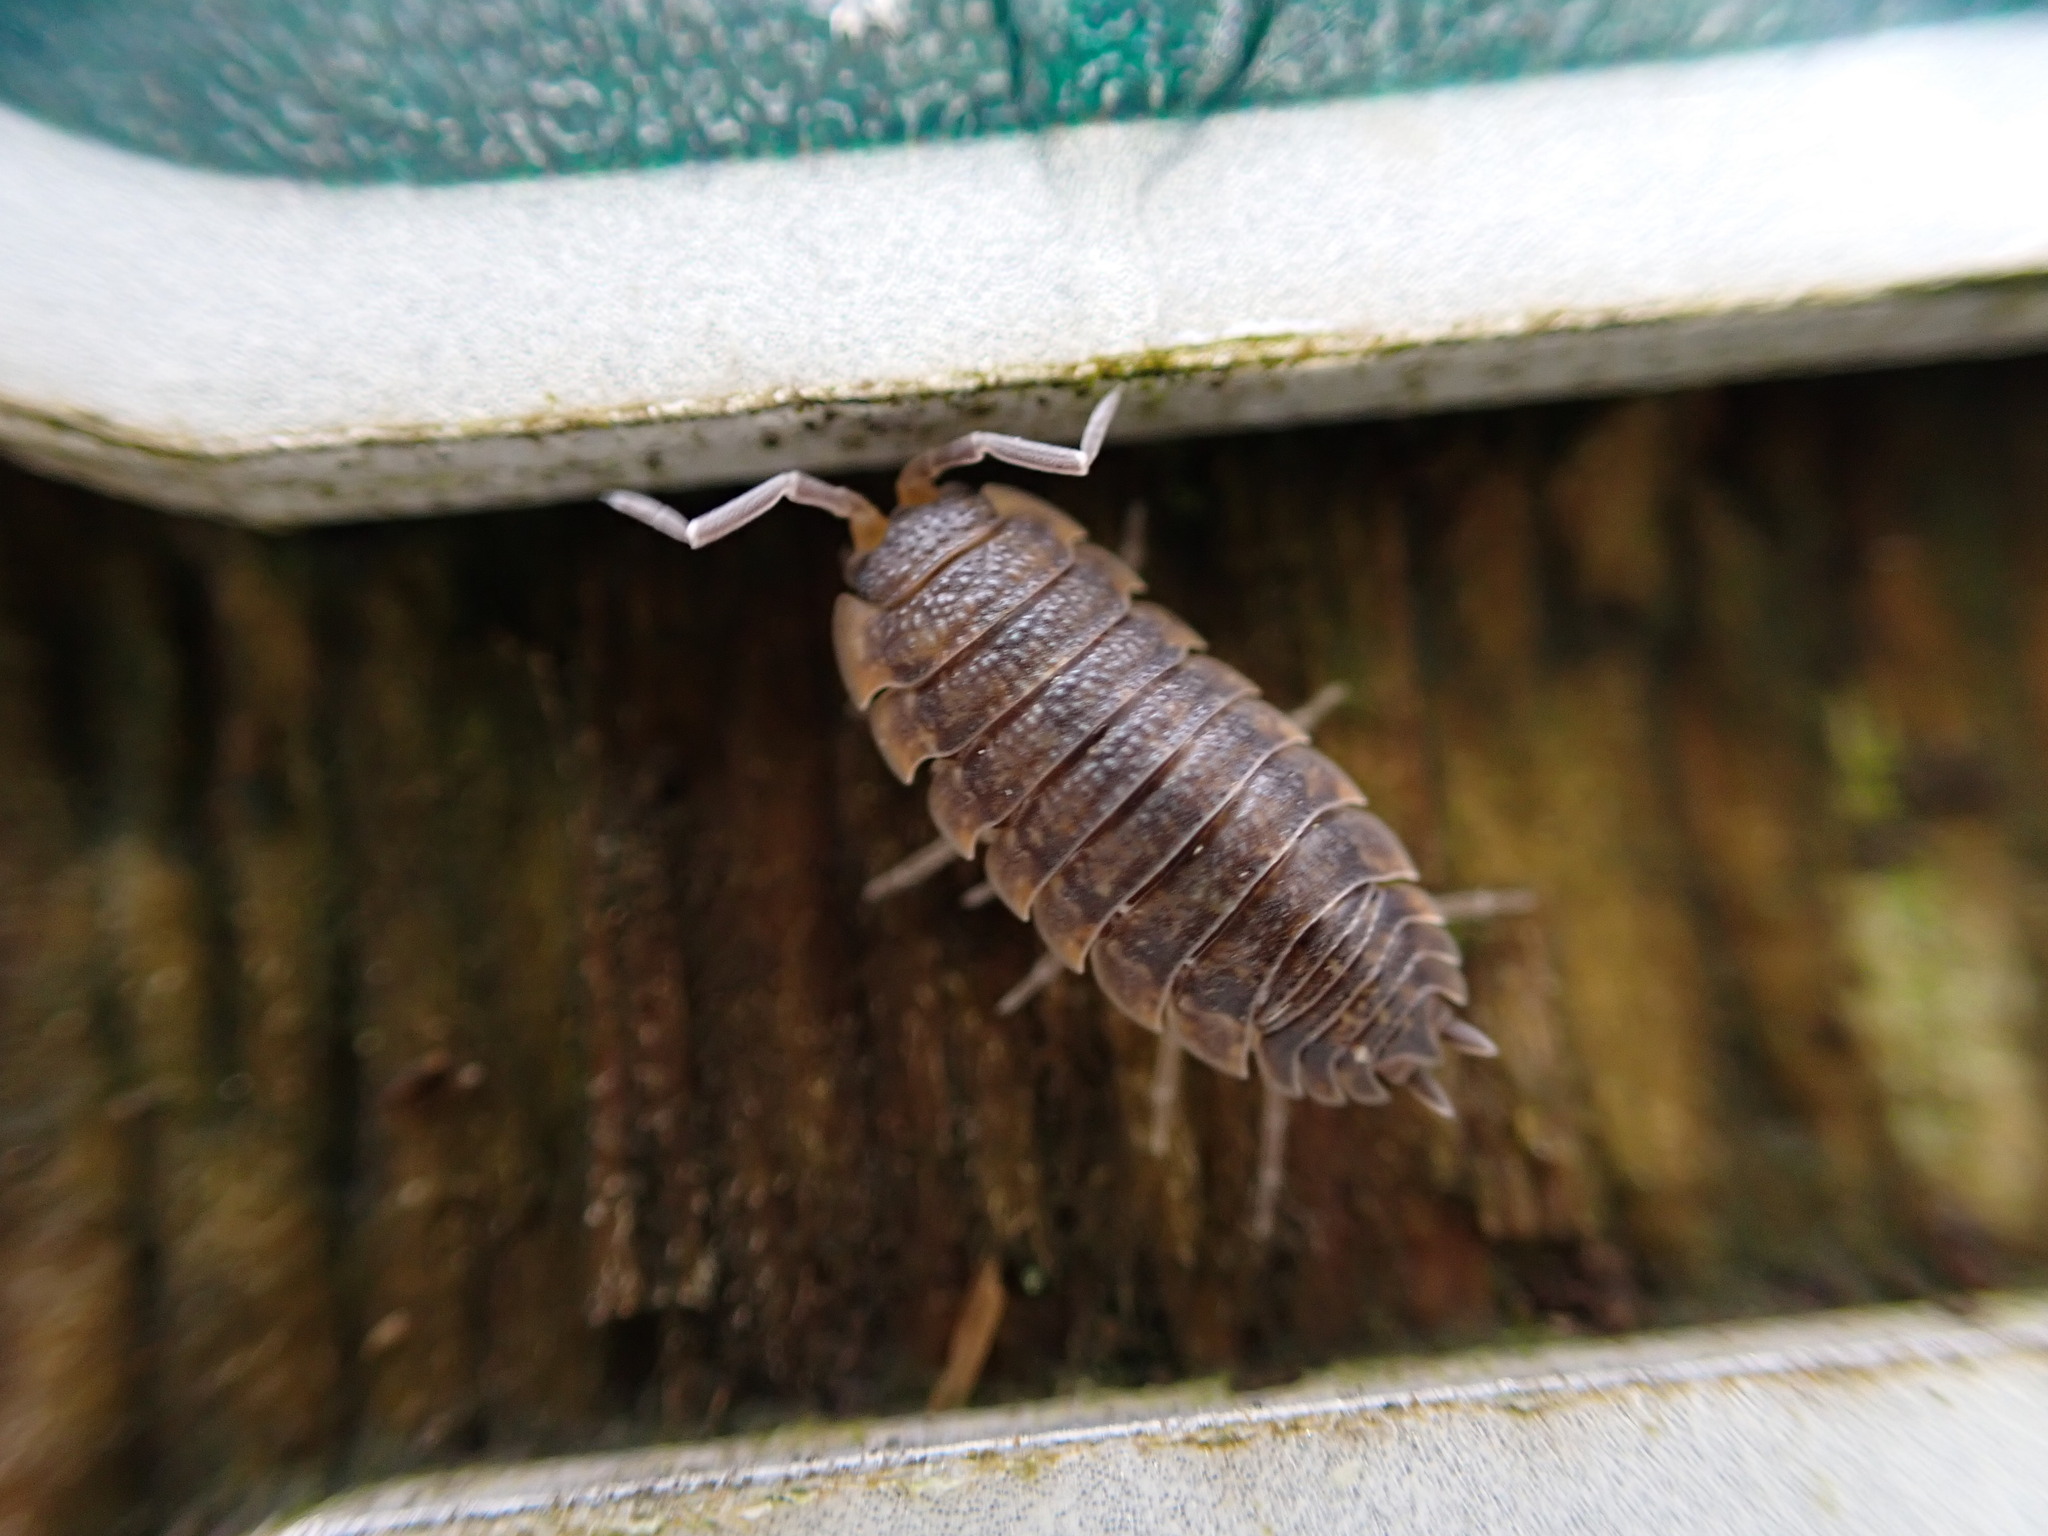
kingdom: Animalia
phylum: Arthropoda
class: Malacostraca
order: Isopoda
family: Porcellionidae
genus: Porcellio
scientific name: Porcellio scaber
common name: Common rough woodlouse
